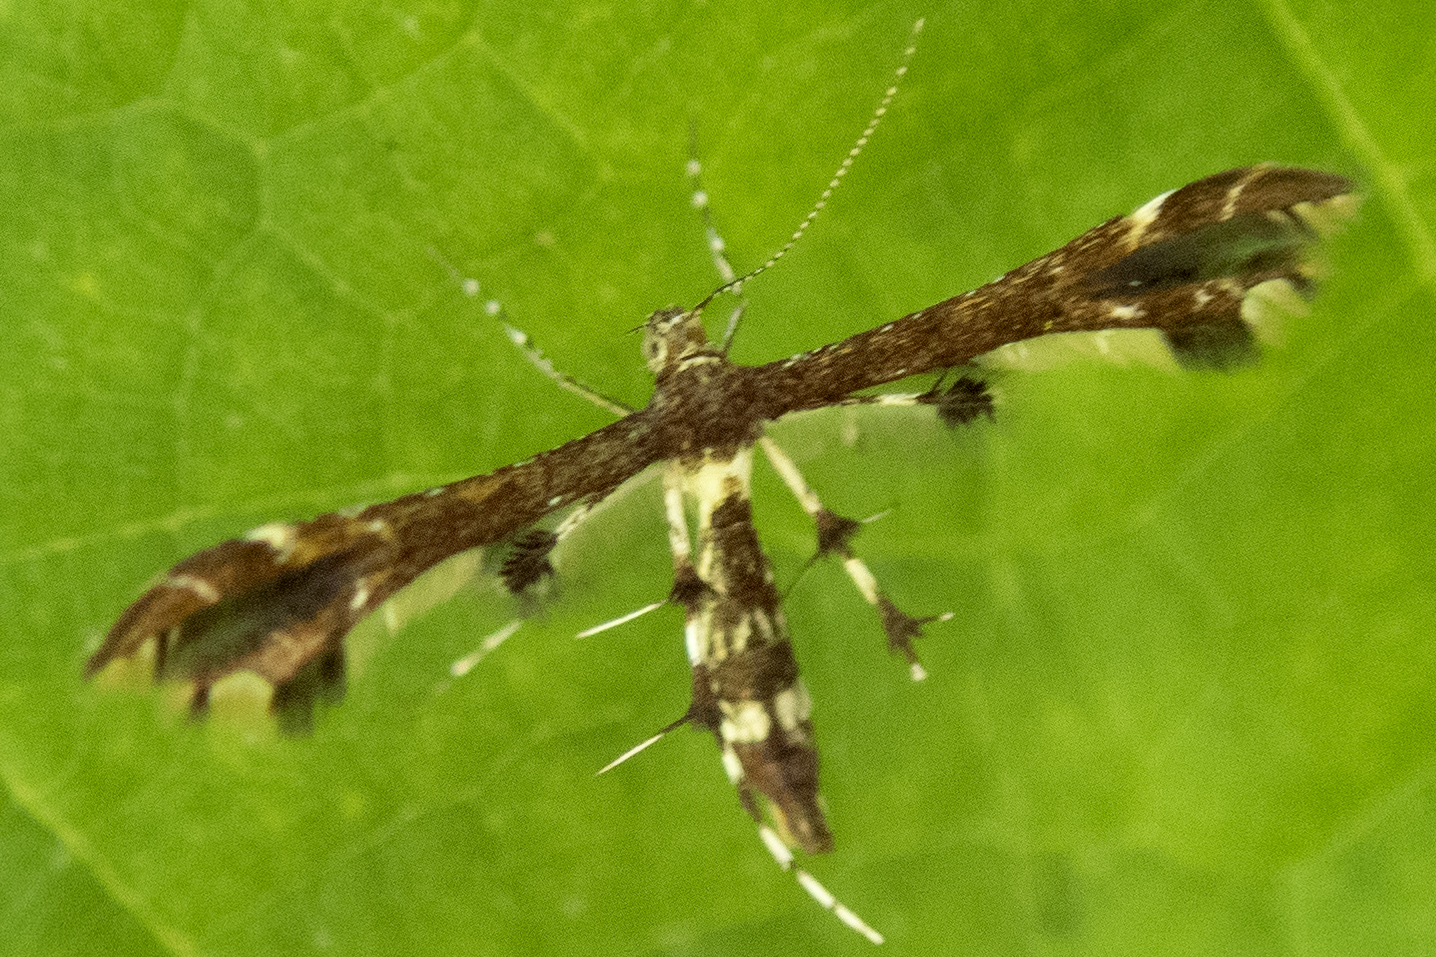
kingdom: Animalia
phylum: Arthropoda
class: Insecta
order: Lepidoptera
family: Pterophoridae
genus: Geina
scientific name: Geina
